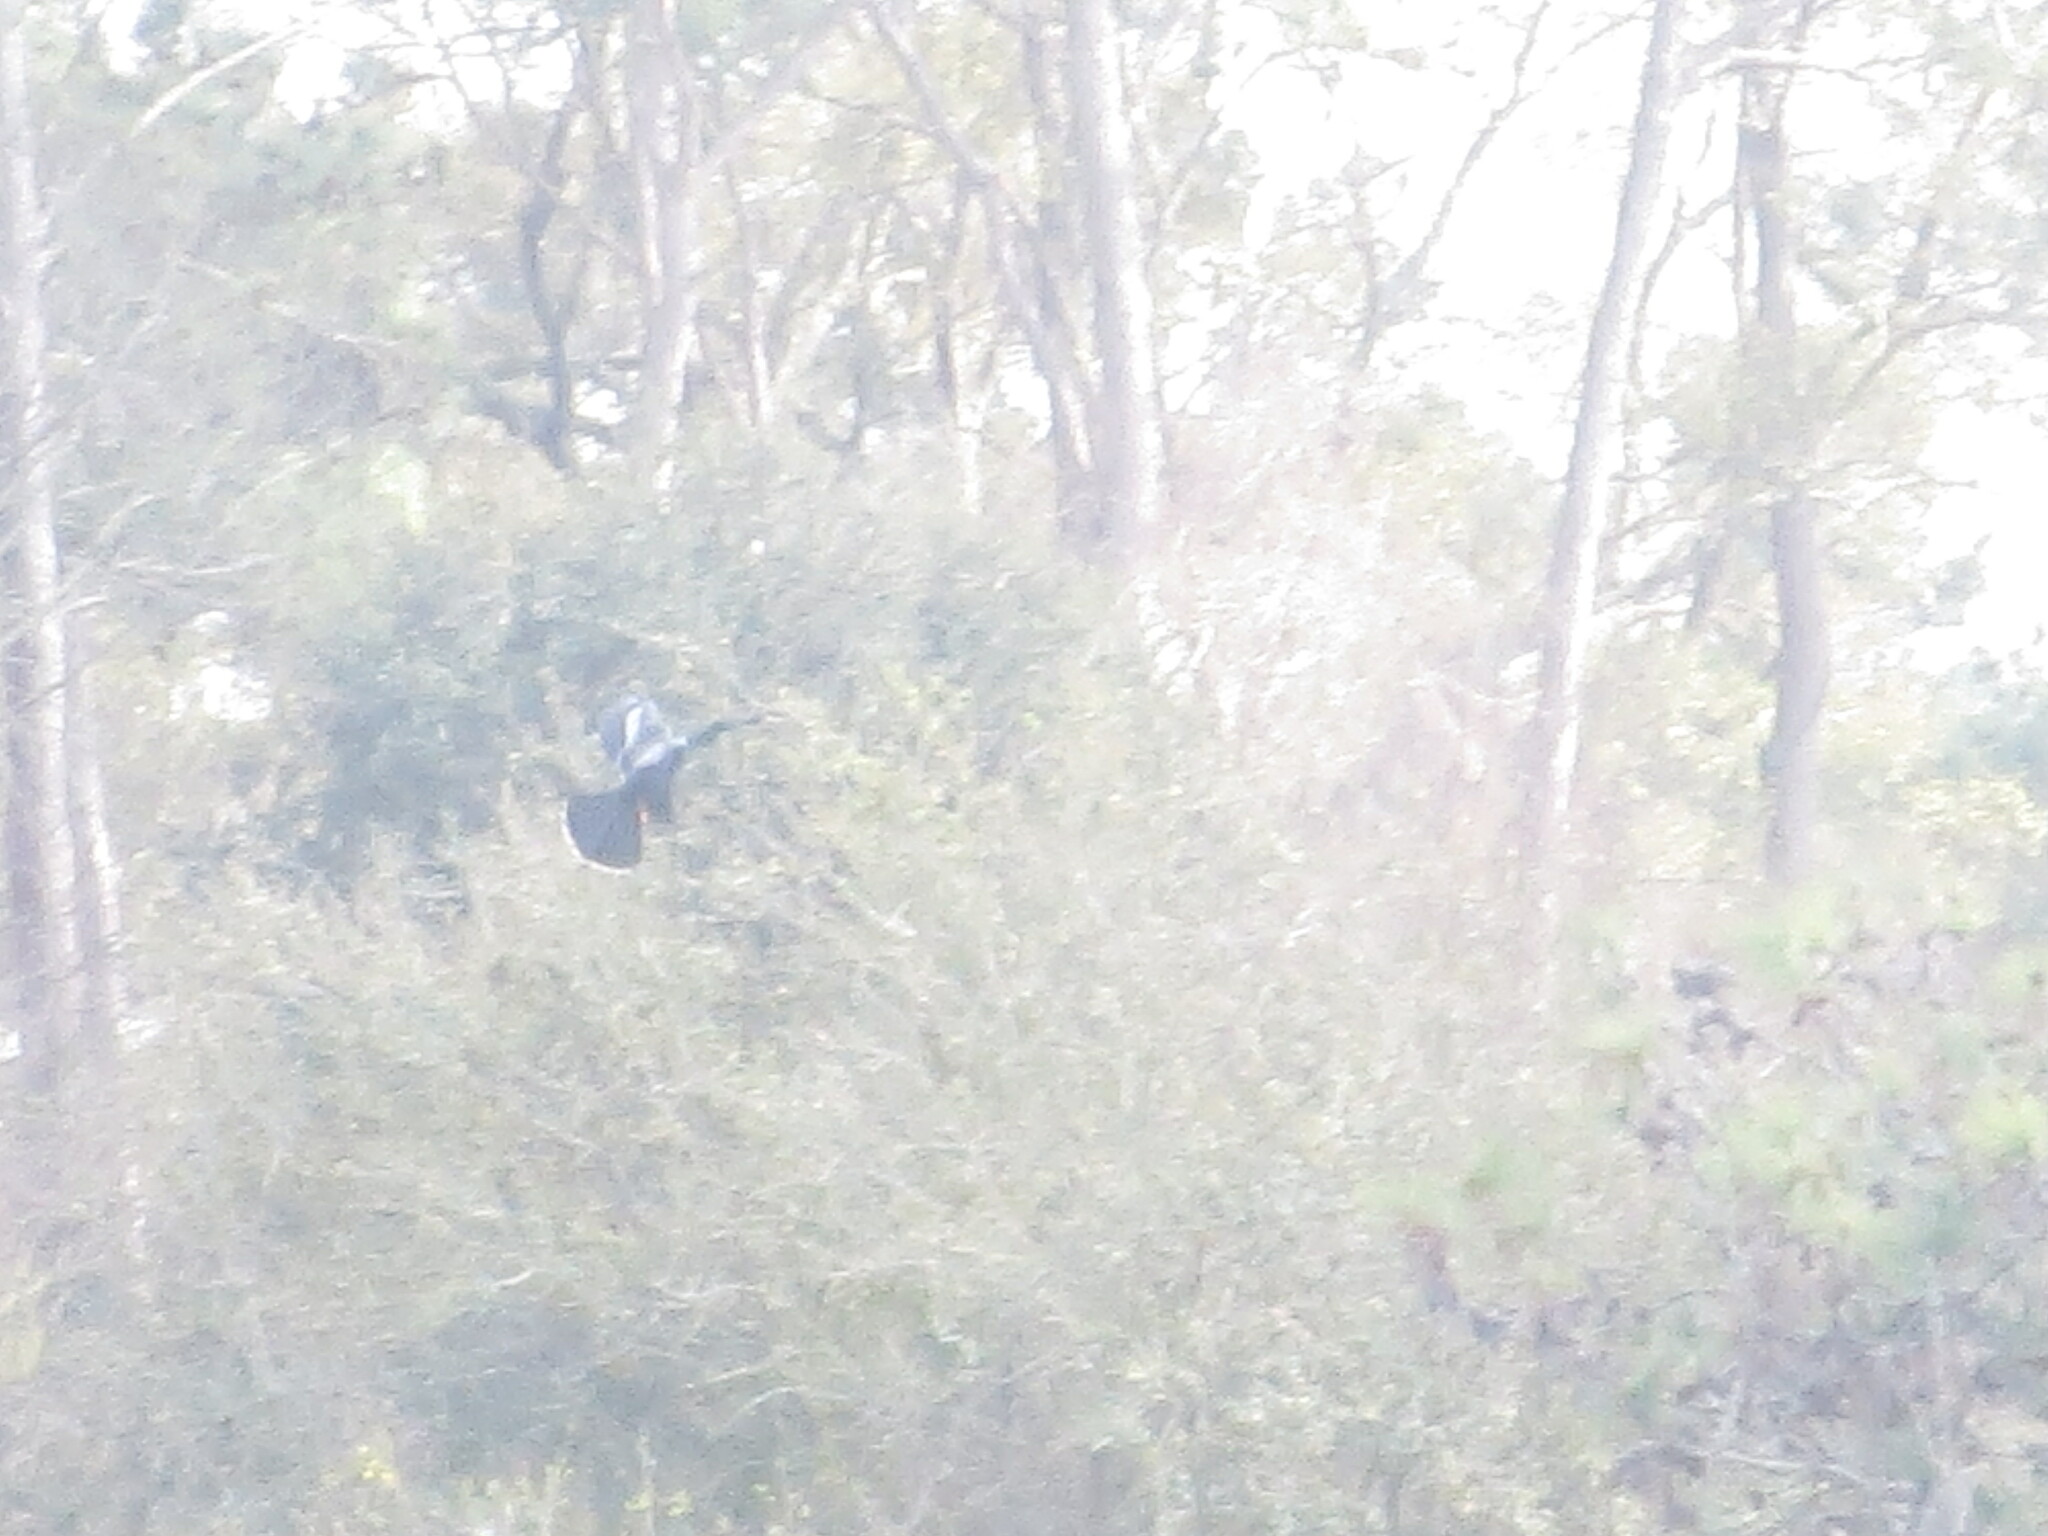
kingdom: Animalia
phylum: Chordata
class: Aves
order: Suliformes
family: Anhingidae
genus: Anhinga
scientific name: Anhinga anhinga
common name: Anhinga
